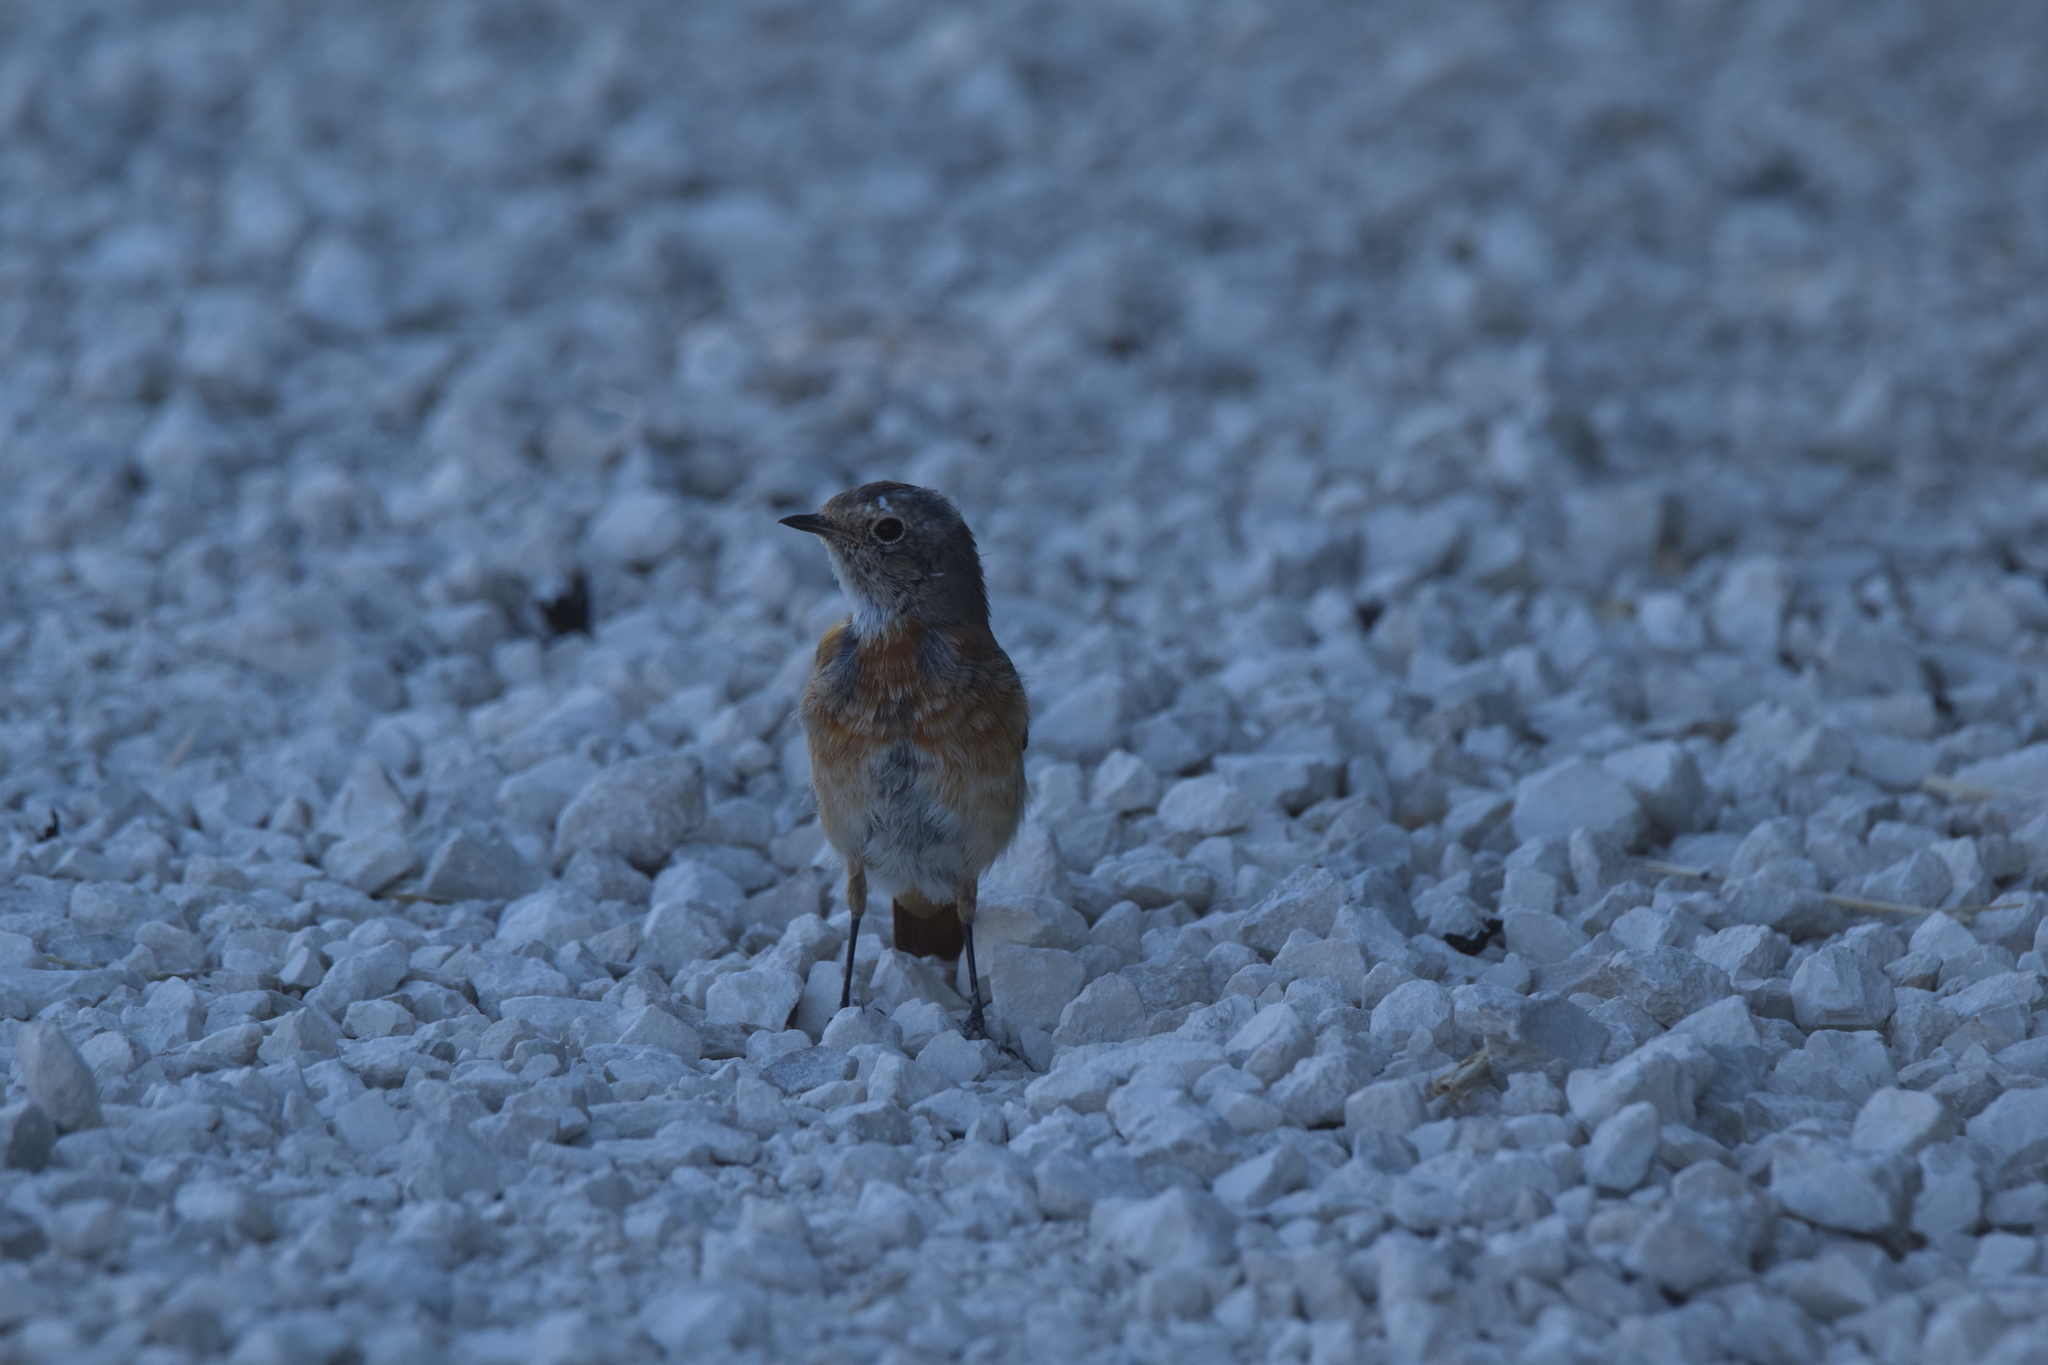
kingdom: Animalia
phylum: Chordata
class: Aves
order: Passeriformes
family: Muscicapidae
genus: Phoenicurus
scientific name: Phoenicurus phoenicurus
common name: Common redstart
